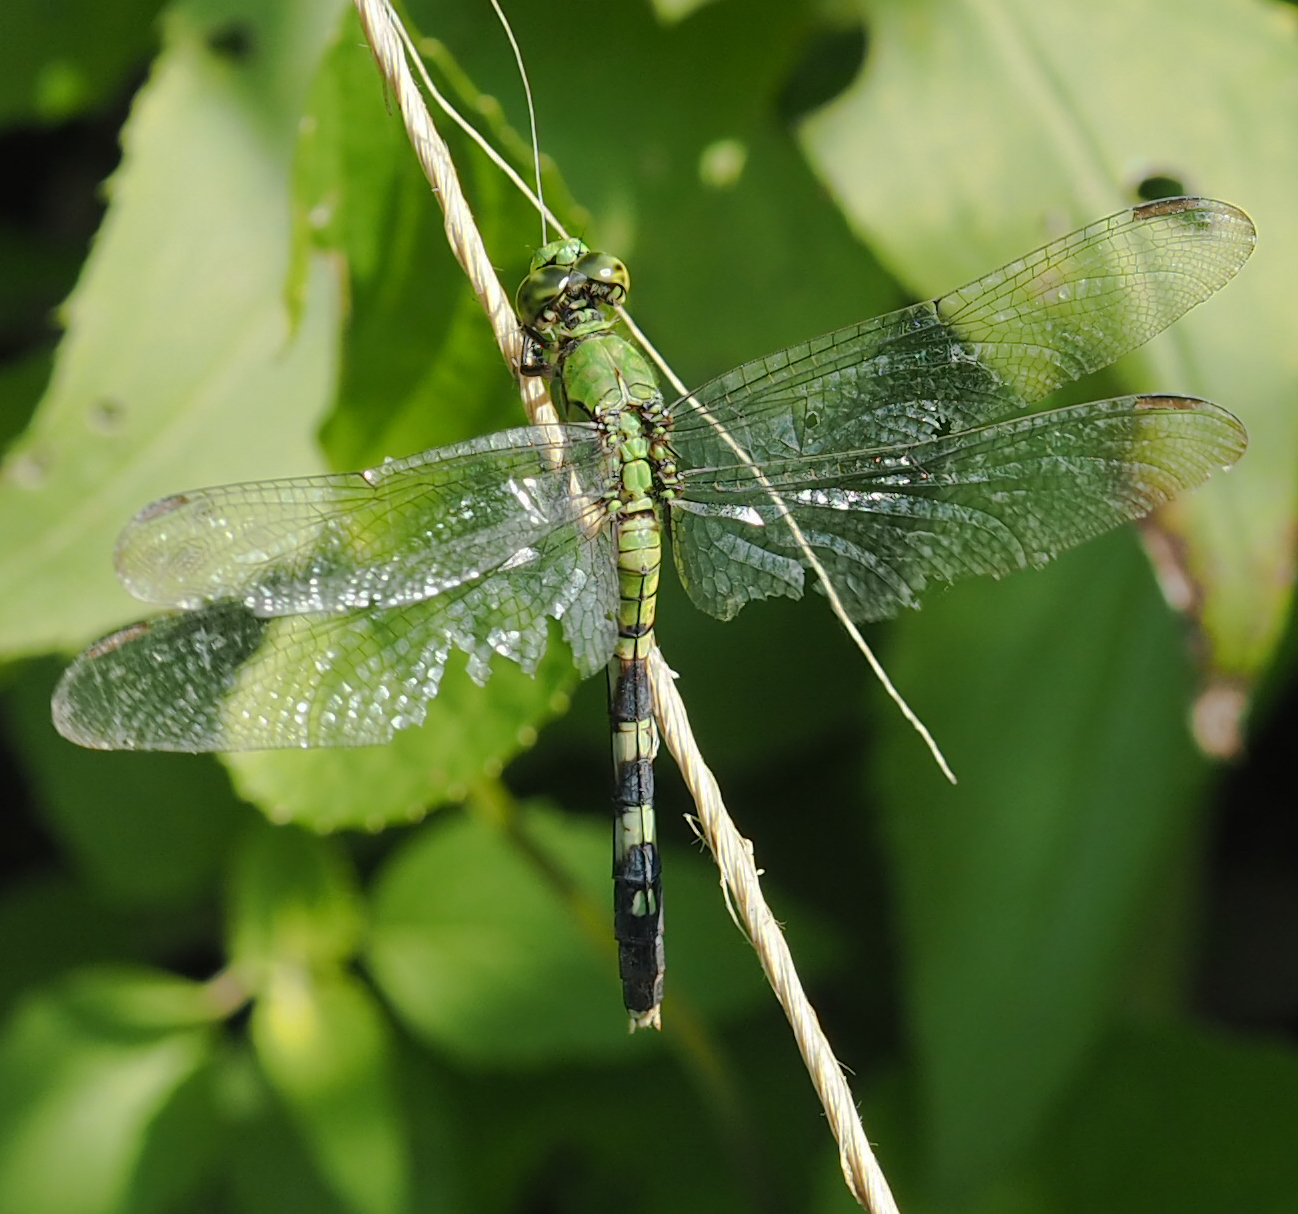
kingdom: Animalia
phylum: Arthropoda
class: Insecta
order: Odonata
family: Libellulidae
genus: Erythemis
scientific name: Erythemis simplicicollis
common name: Eastern pondhawk
